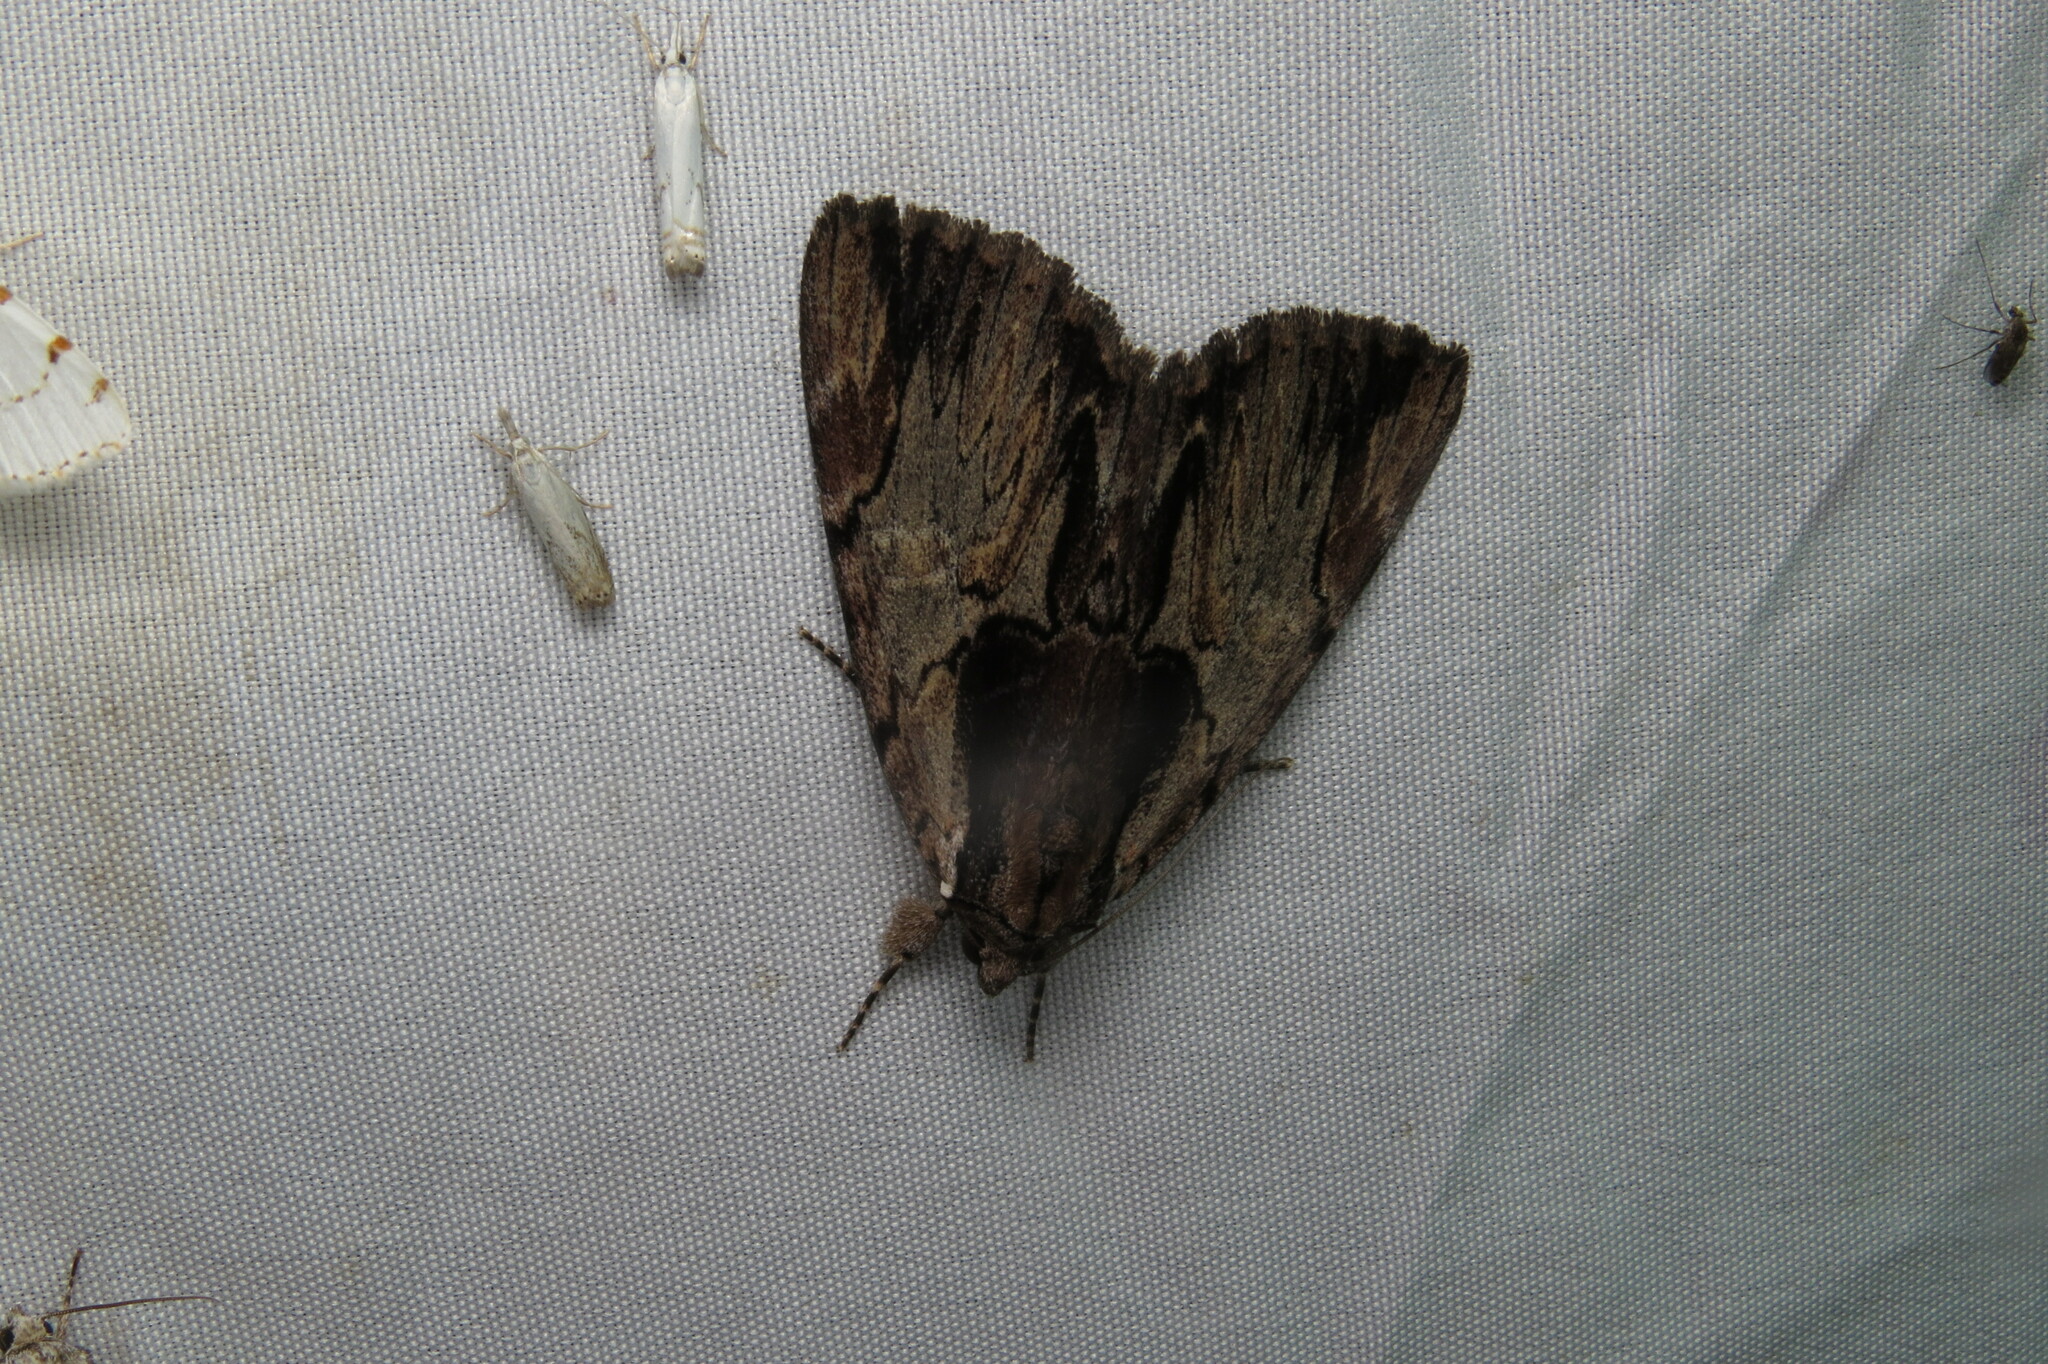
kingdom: Animalia
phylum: Arthropoda
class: Insecta
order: Lepidoptera
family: Erebidae
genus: Catocala
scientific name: Catocala ultronia
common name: Ultronia underwing
